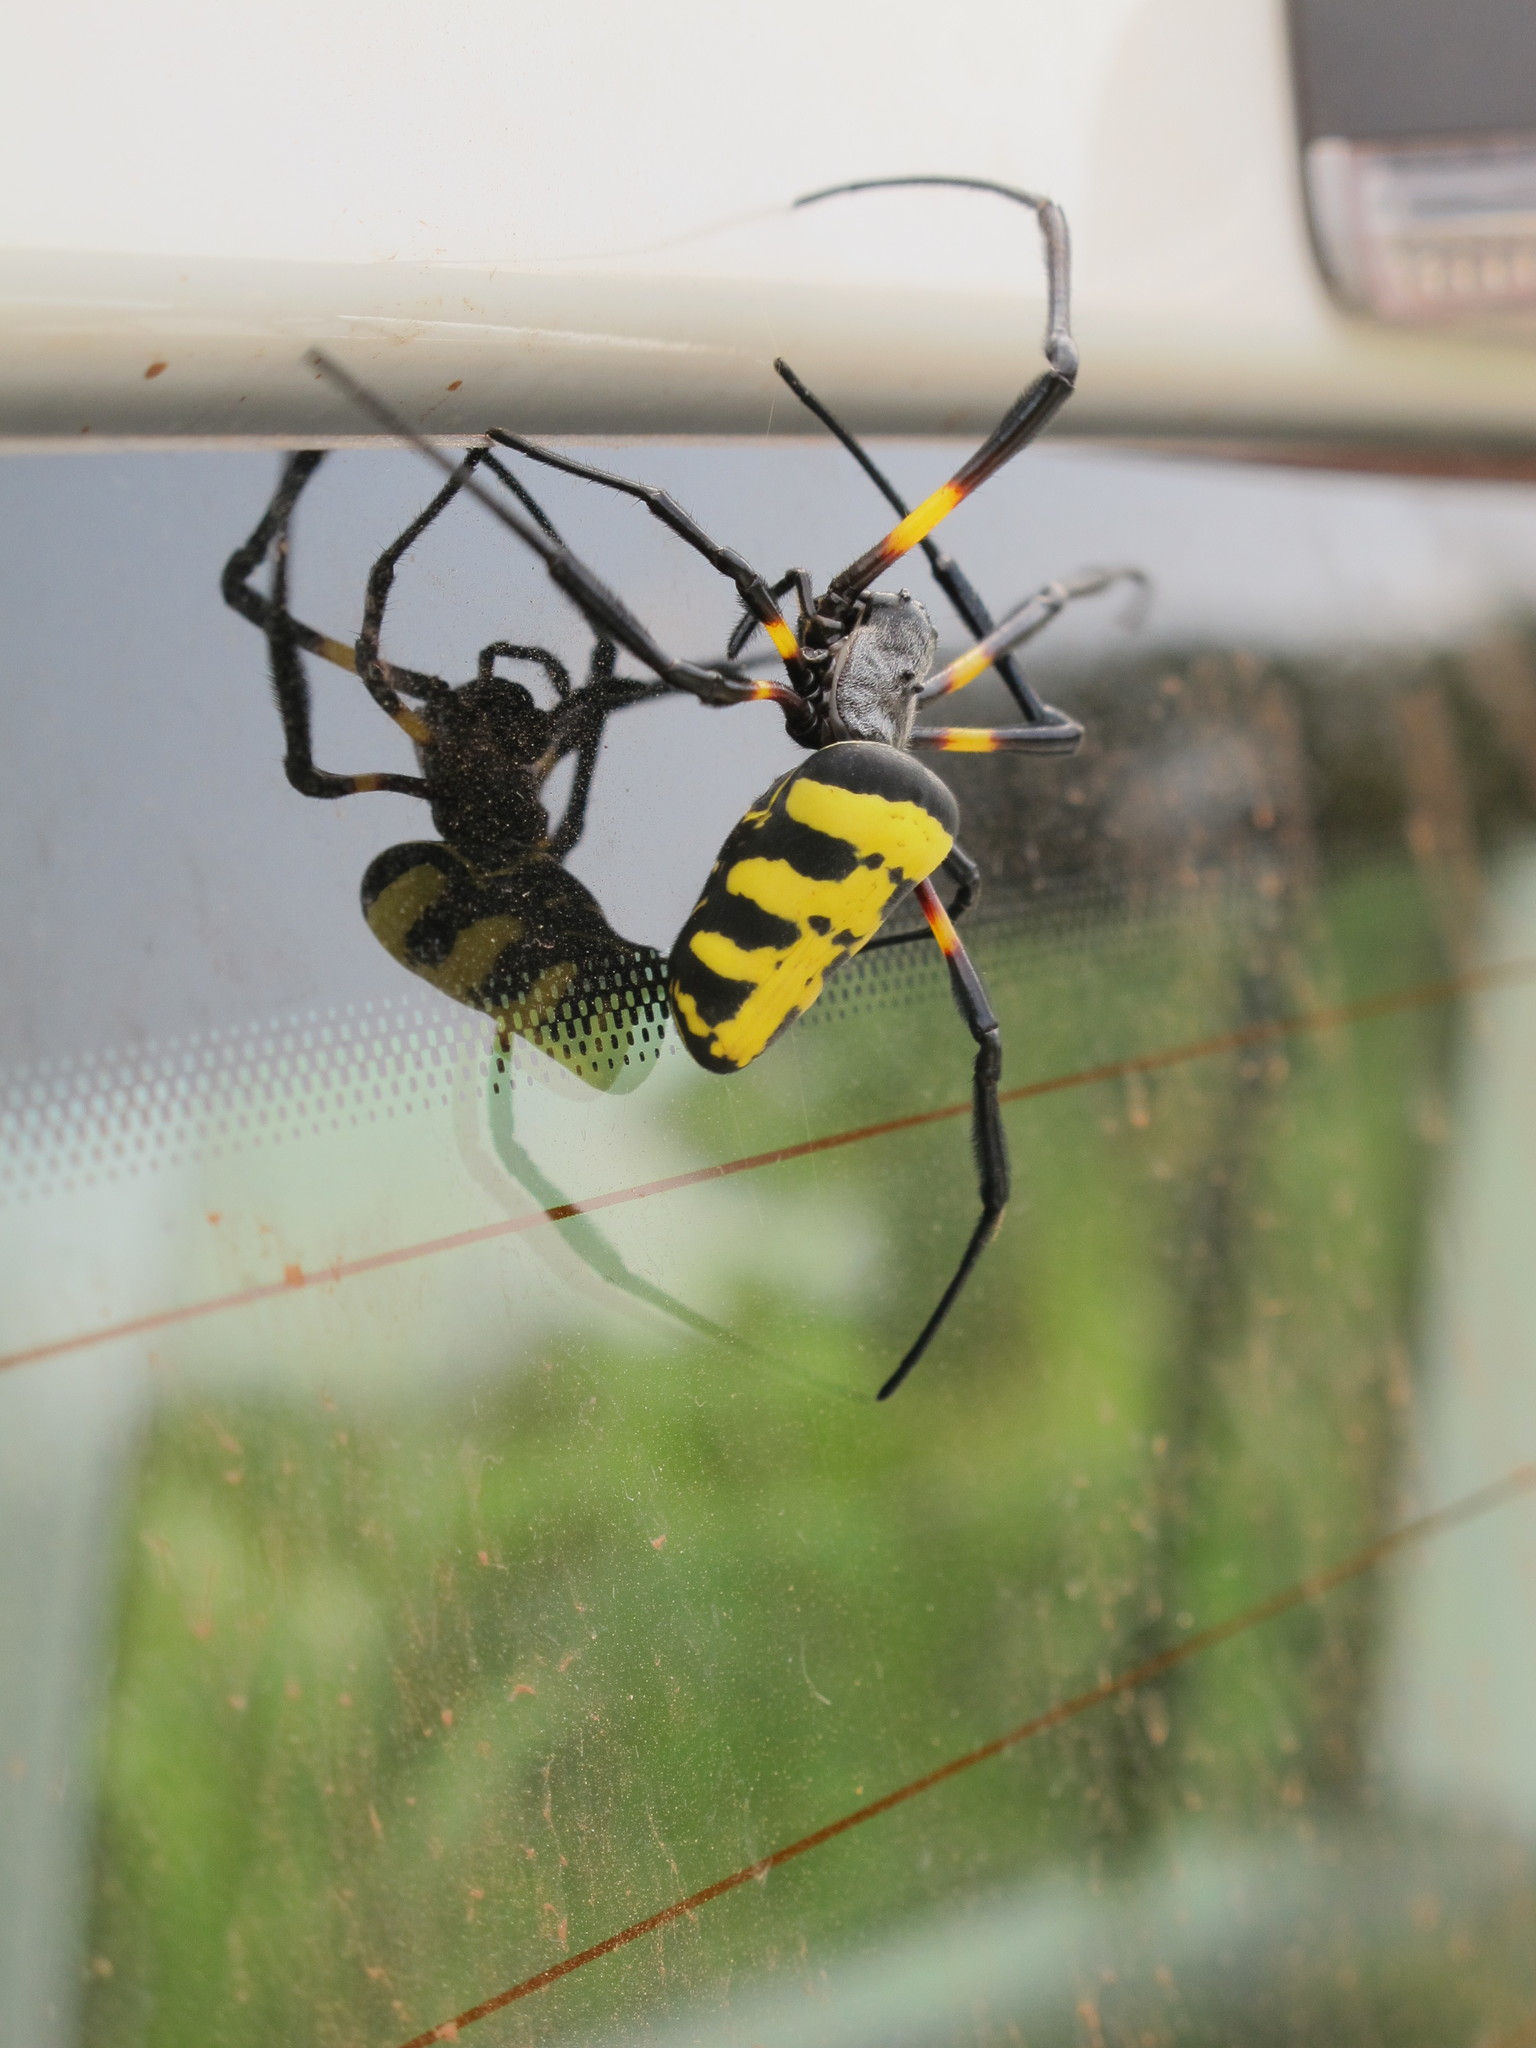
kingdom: Animalia
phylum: Arthropoda
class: Arachnida
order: Araneae
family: Araneidae
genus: Trichonephila
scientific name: Trichonephila turneri
